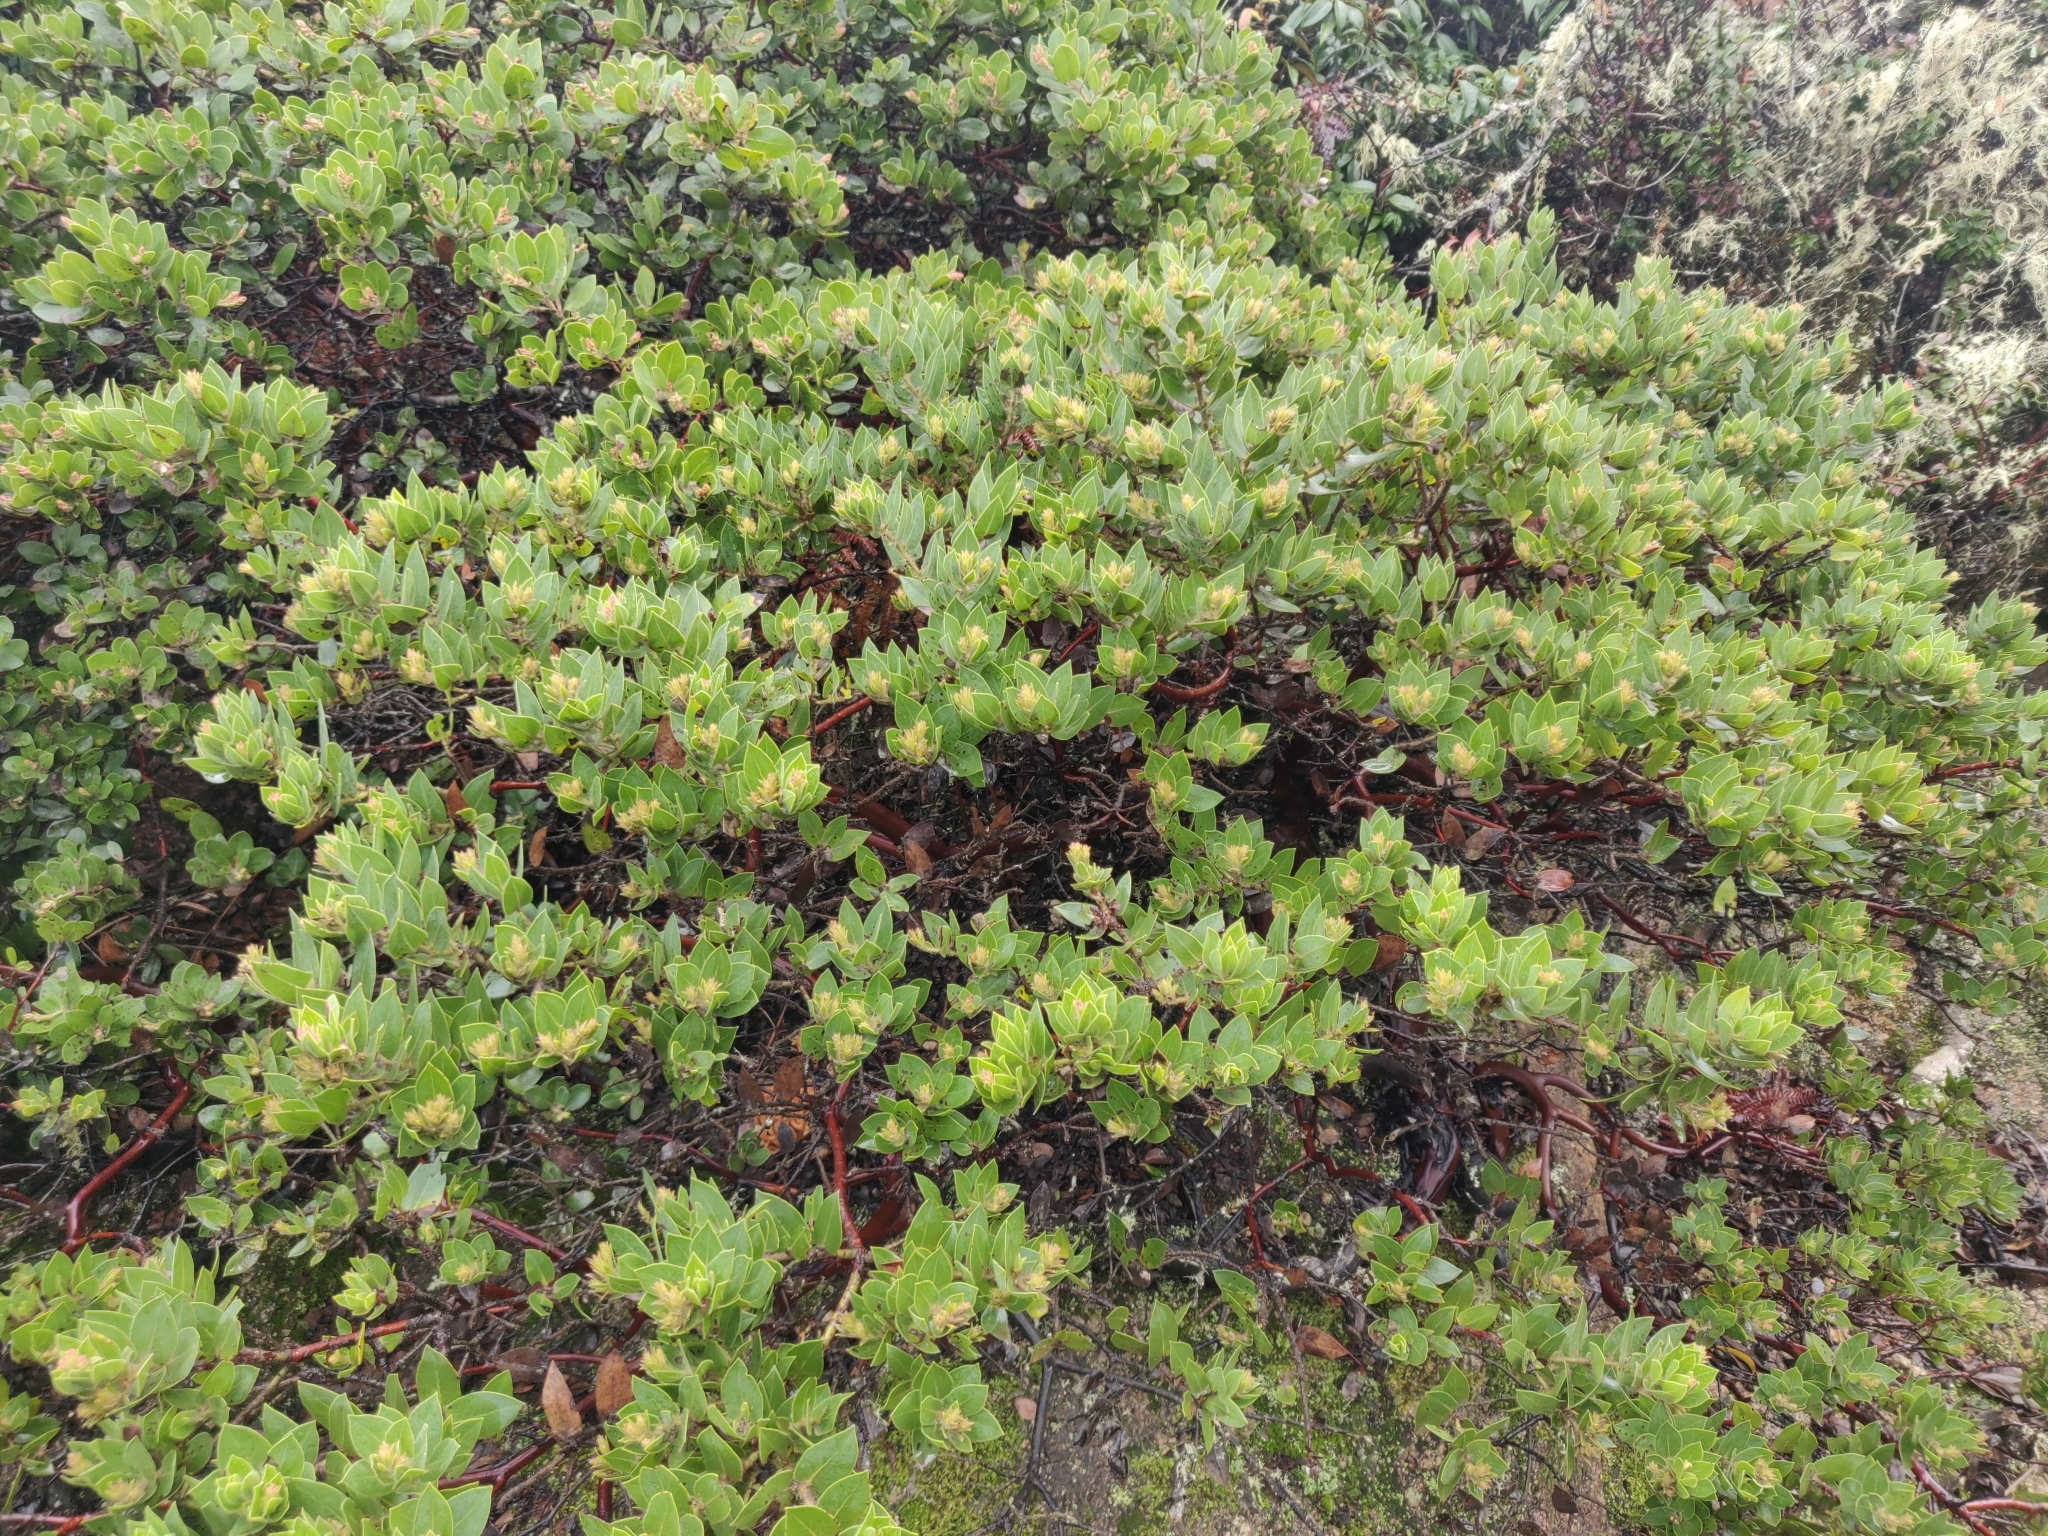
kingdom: Plantae
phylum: Tracheophyta
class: Magnoliopsida
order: Ericales
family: Ericaceae
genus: Arctostaphylos
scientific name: Arctostaphylos montaraensis
